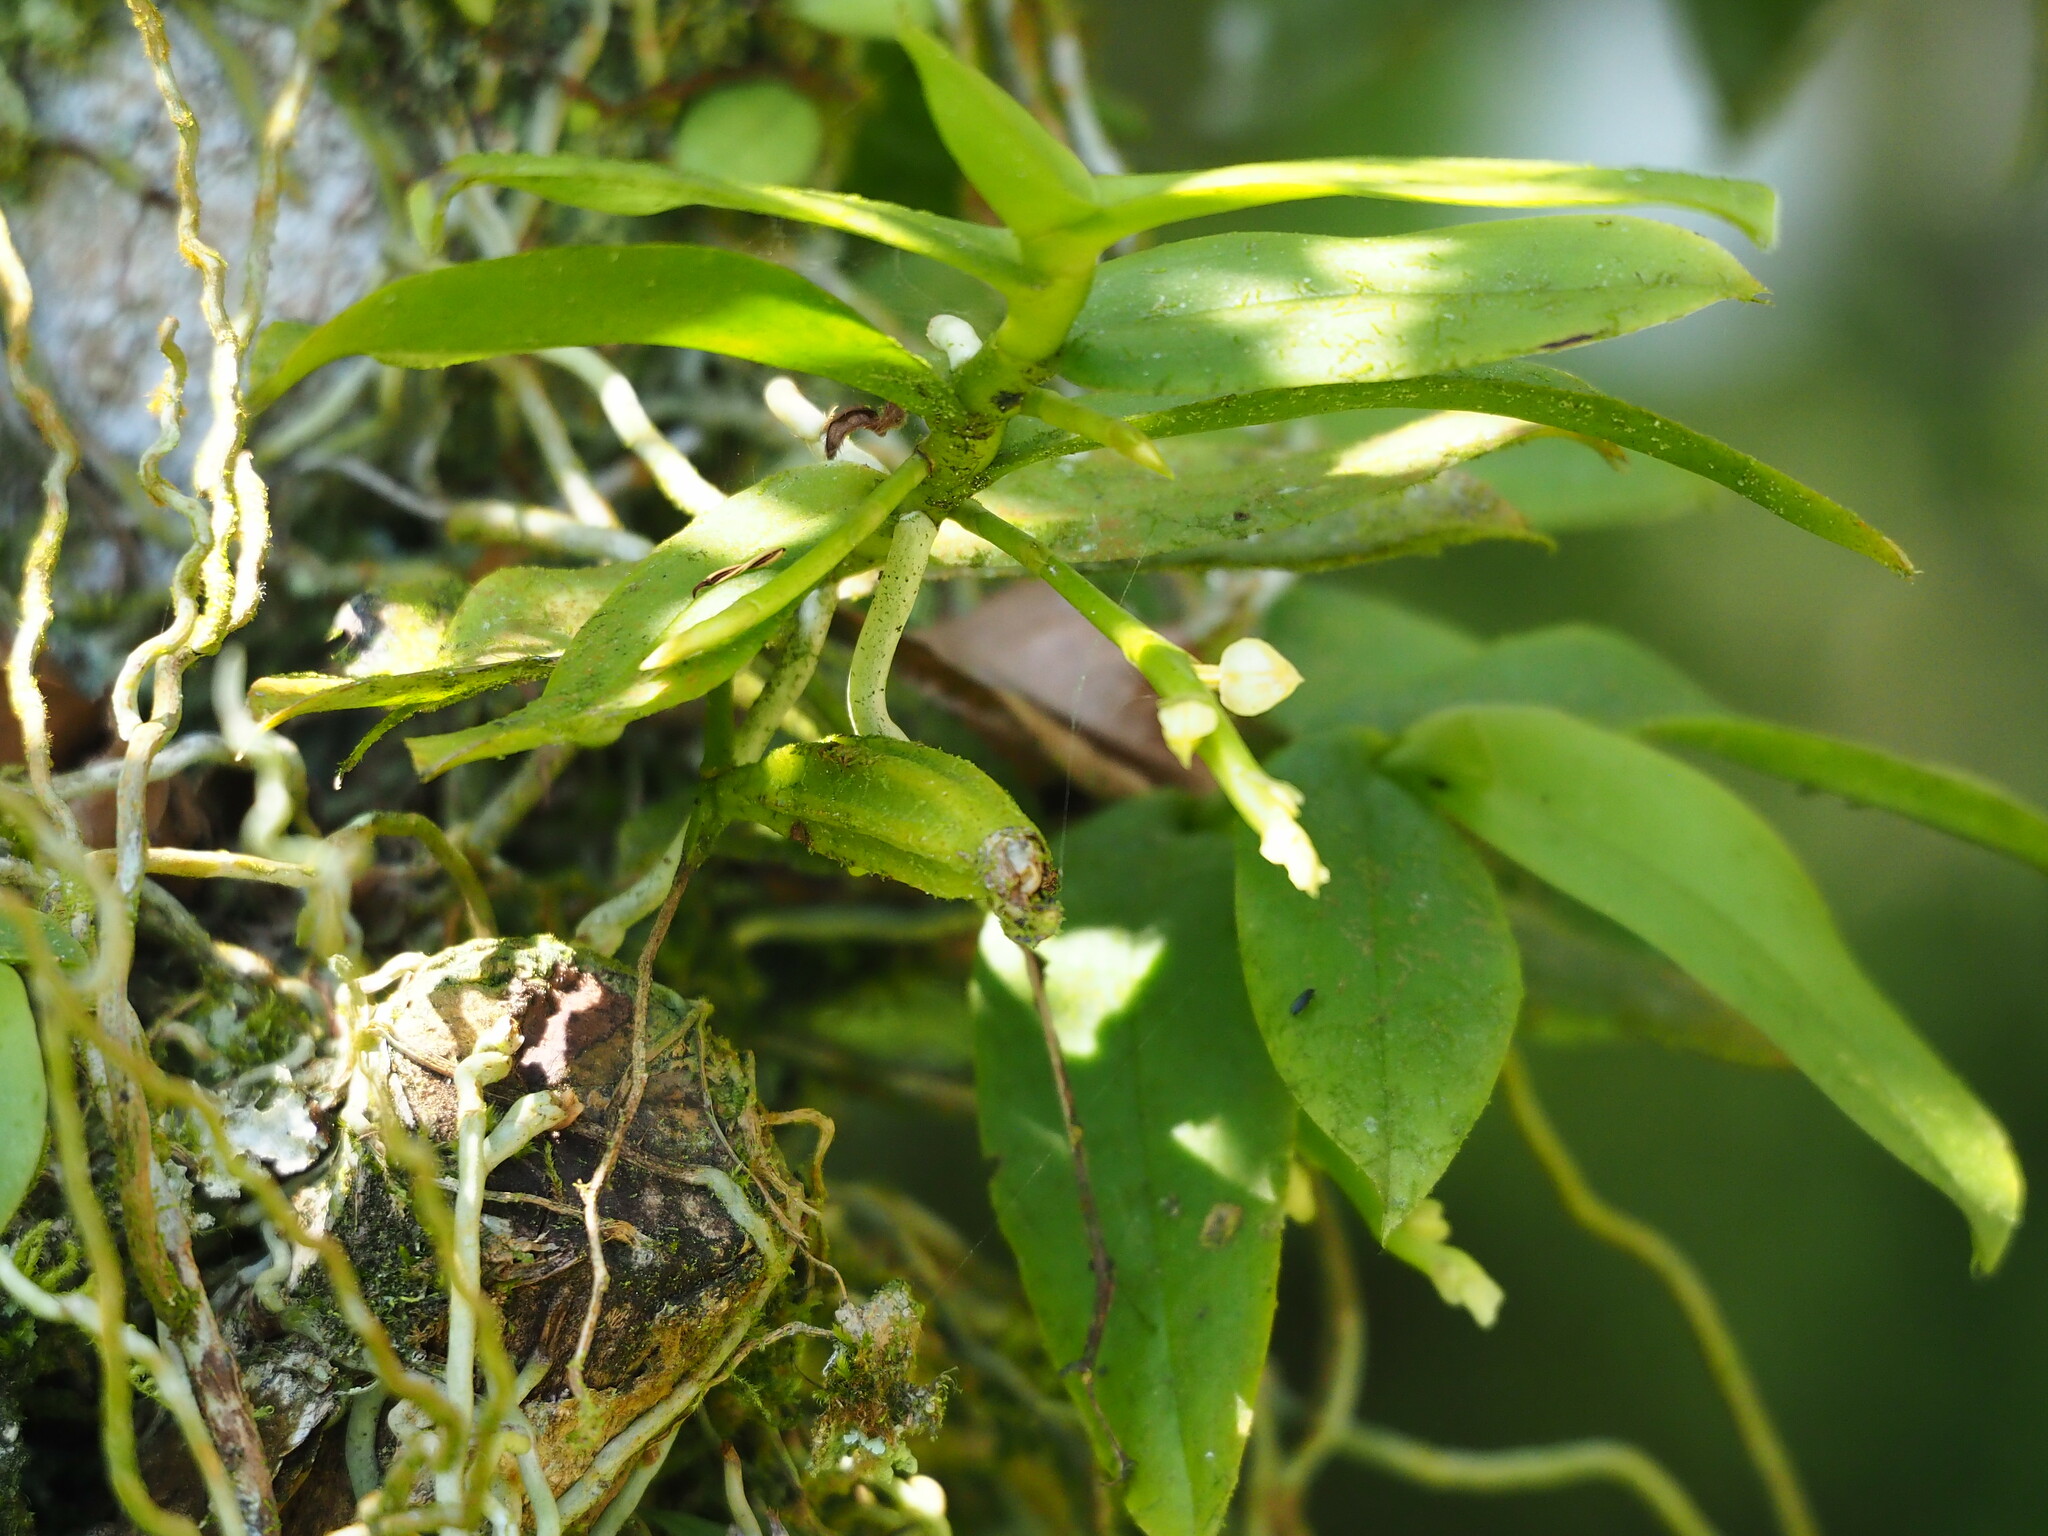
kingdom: Plantae
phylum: Tracheophyta
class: Liliopsida
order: Asparagales
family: Orchidaceae
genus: Diploprora
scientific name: Diploprora championii
